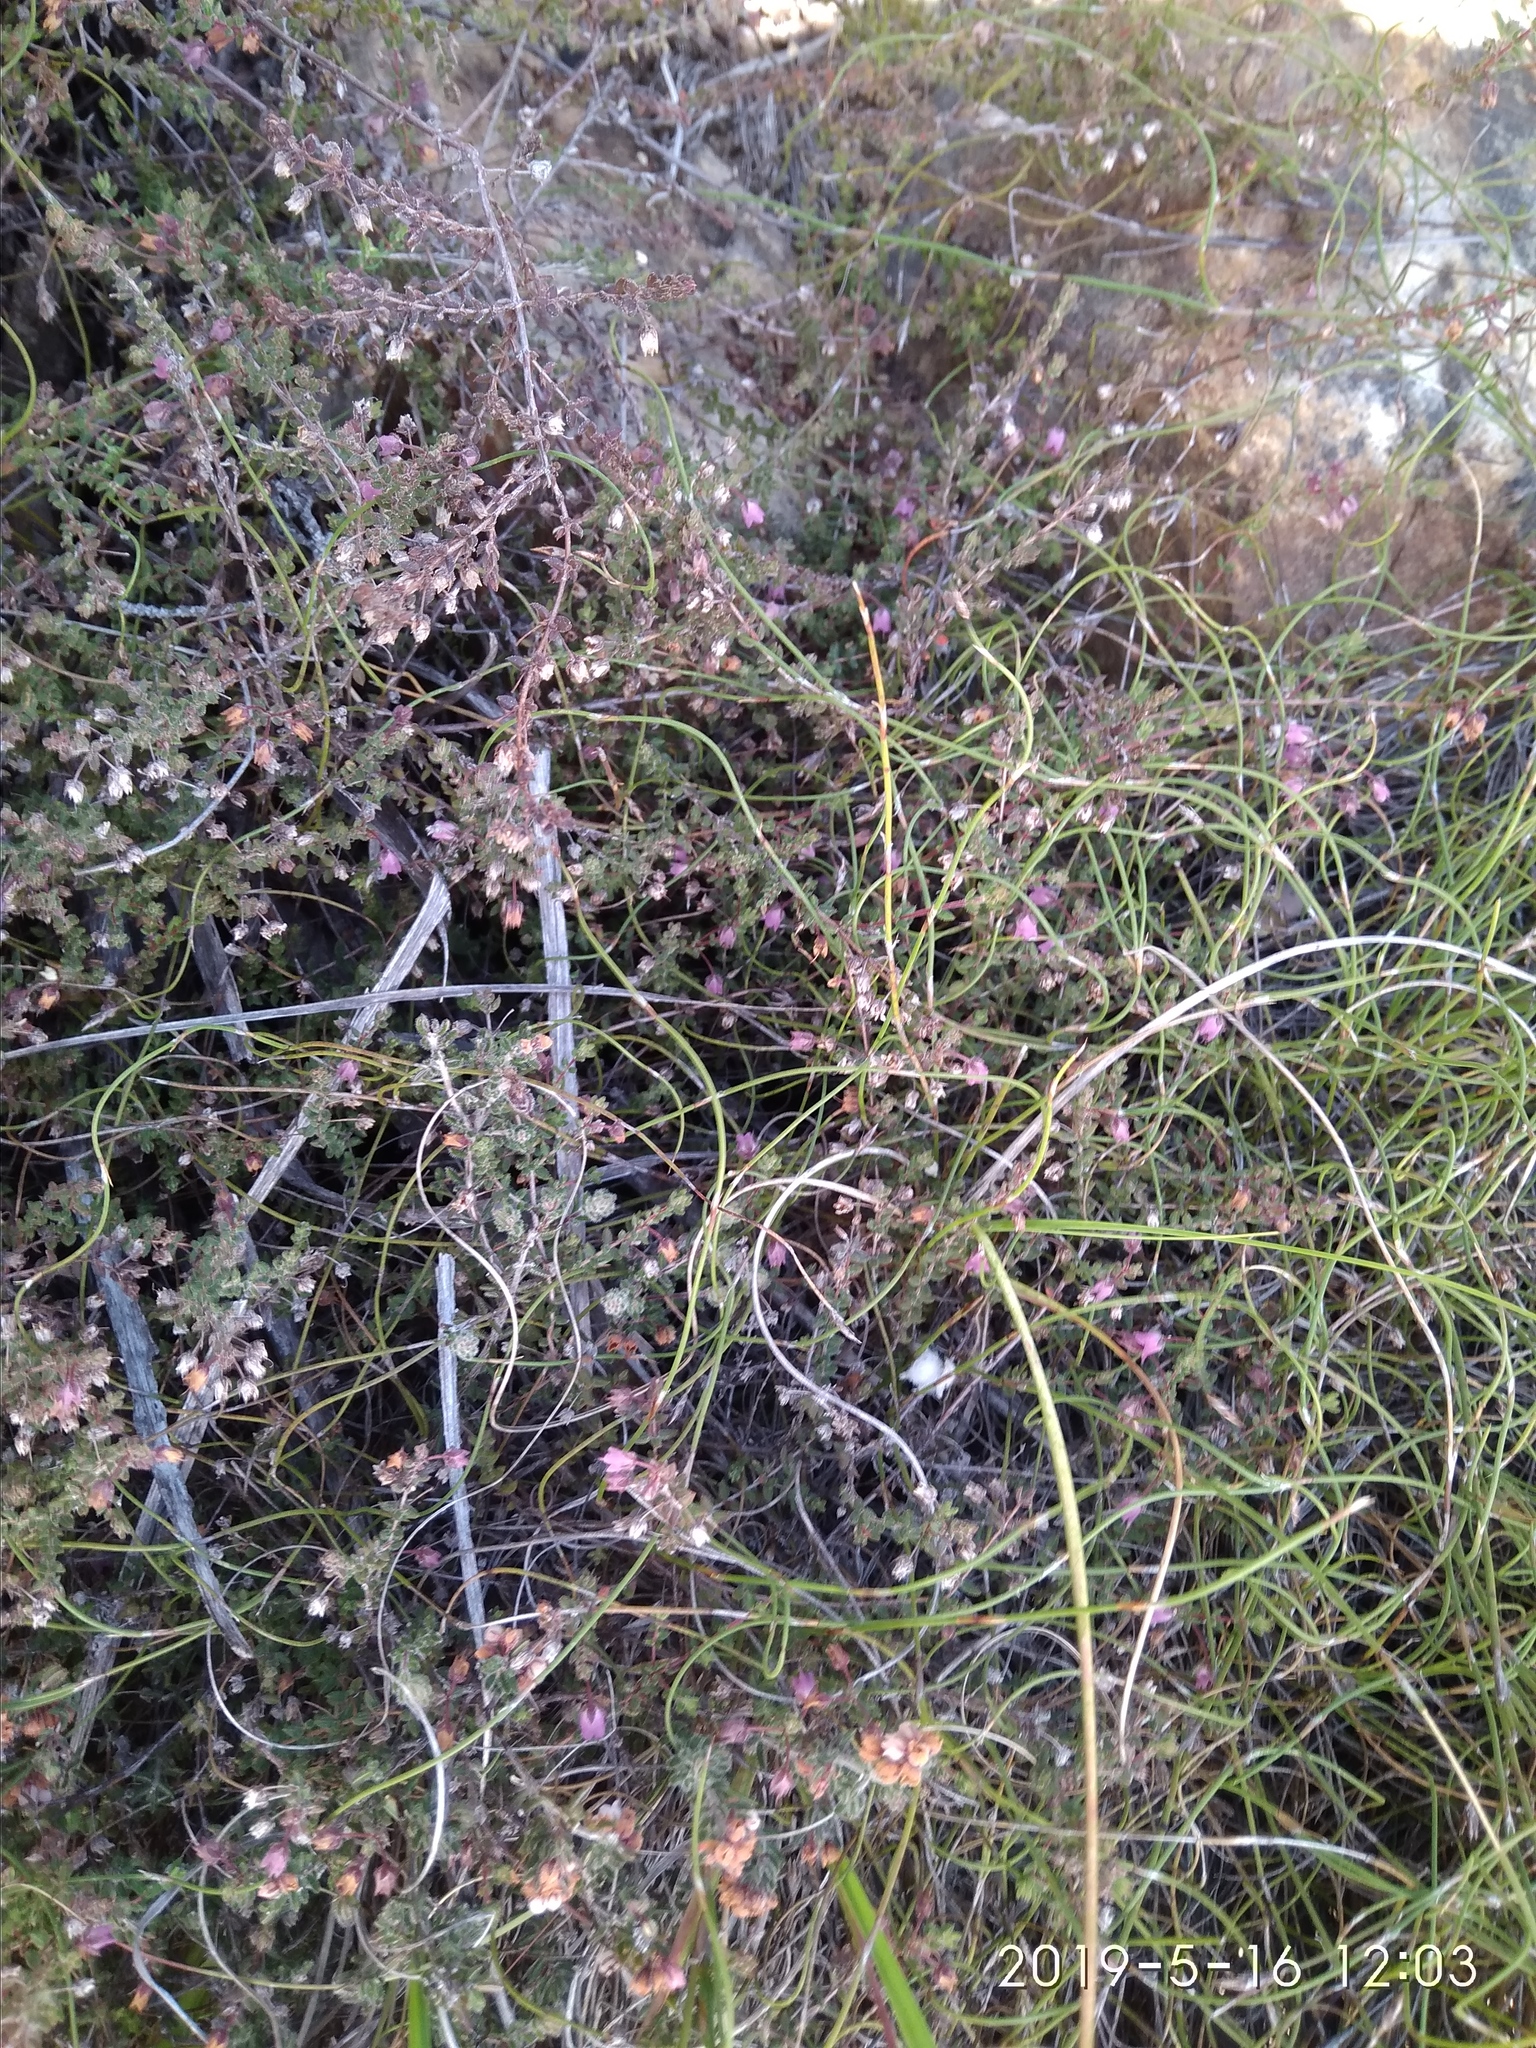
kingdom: Plantae
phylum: Tracheophyta
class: Magnoliopsida
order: Ericales
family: Ericaceae
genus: Erica
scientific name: Erica planifolia
